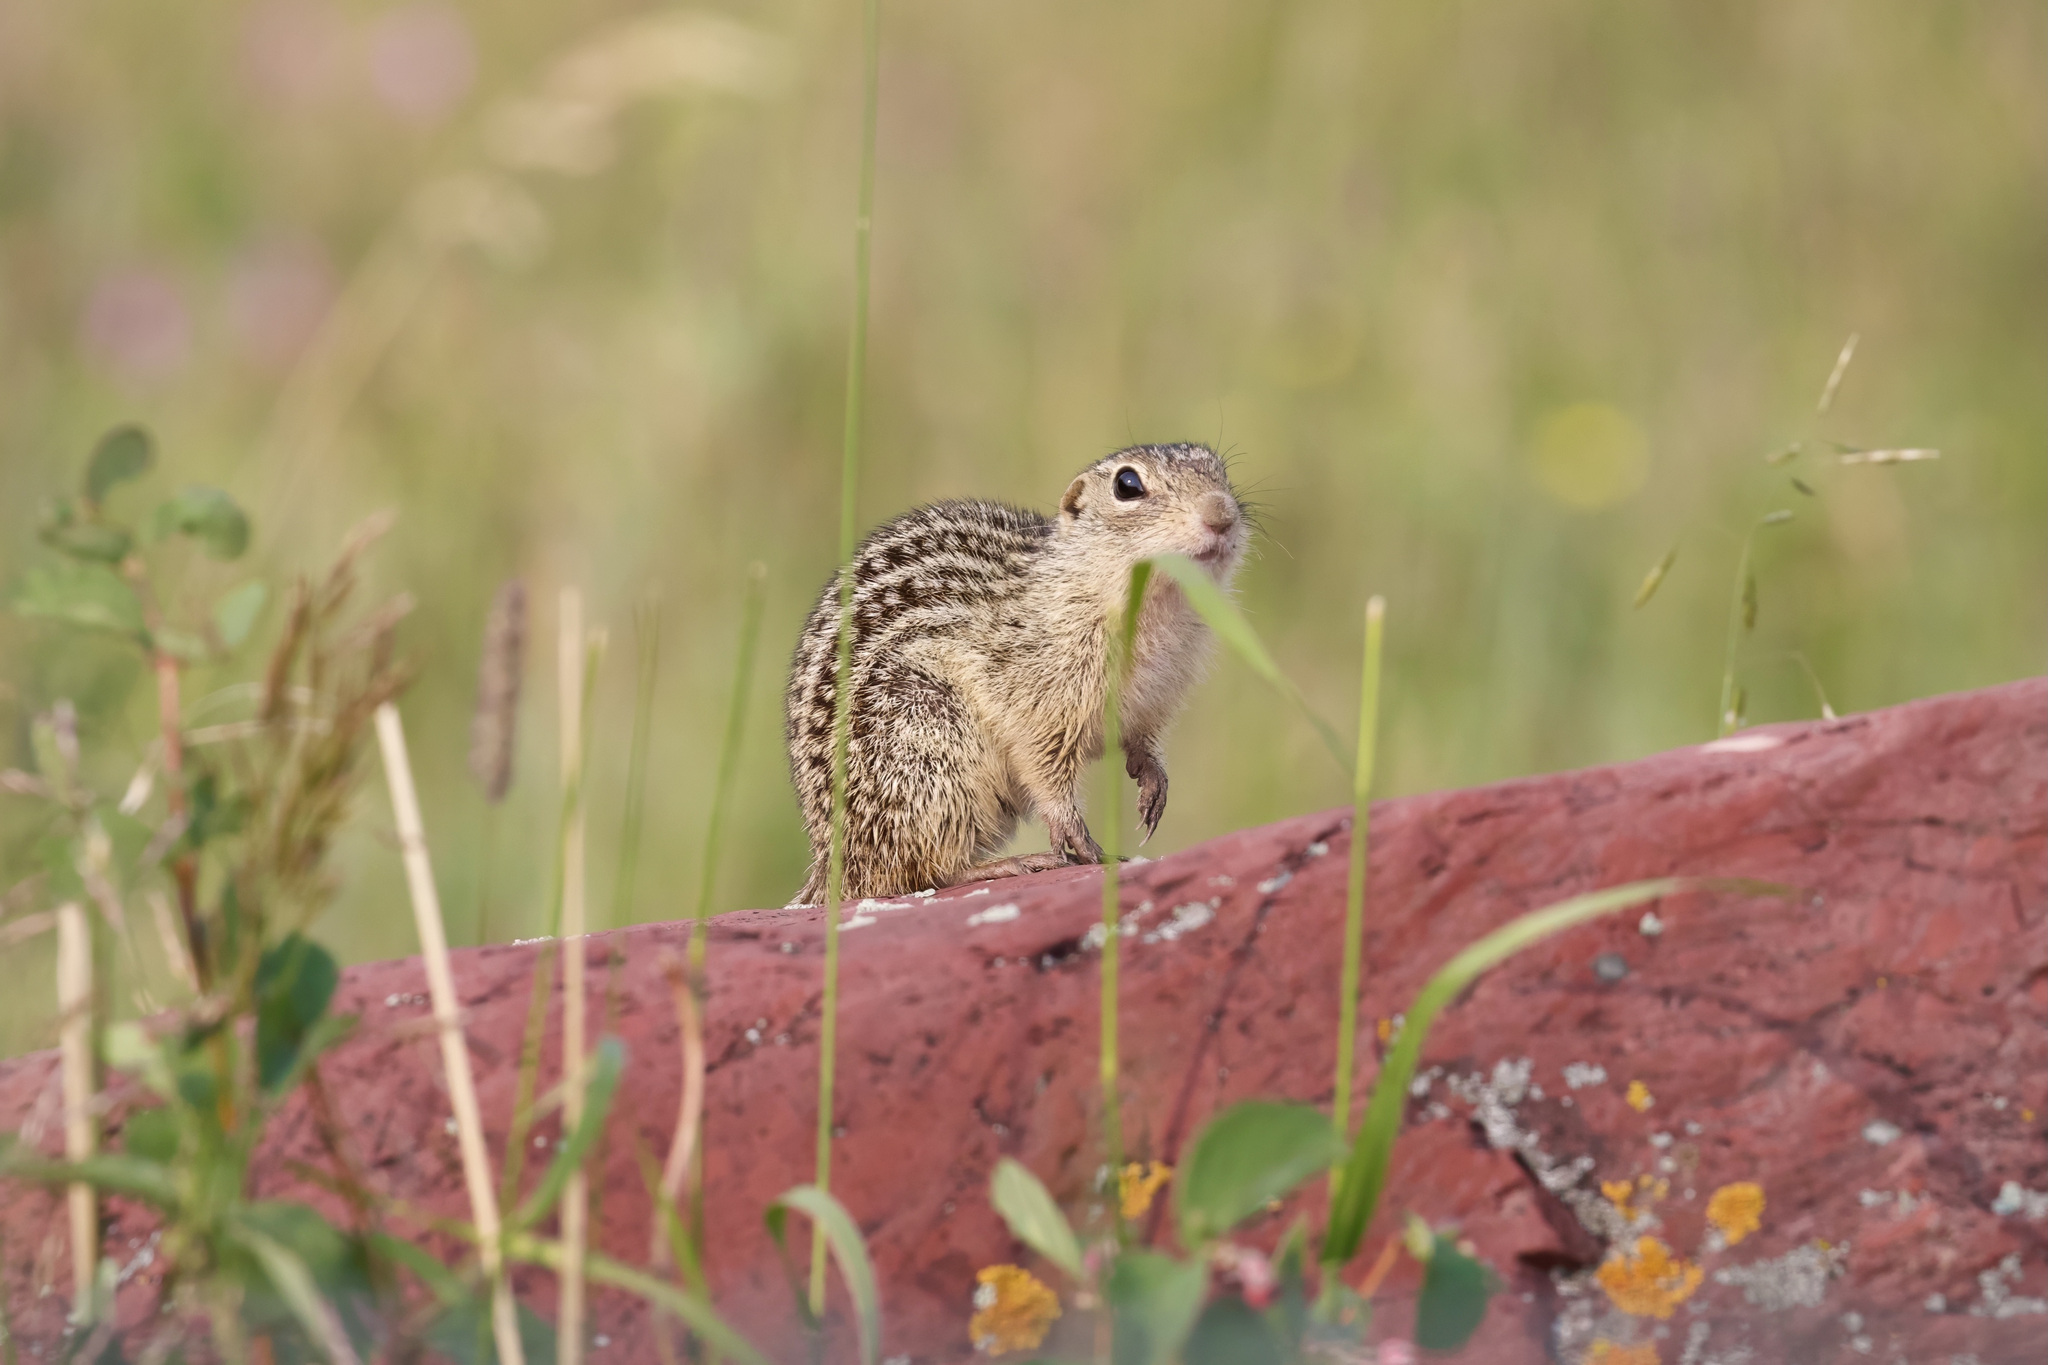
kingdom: Animalia
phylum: Chordata
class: Mammalia
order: Rodentia
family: Sciuridae
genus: Ictidomys
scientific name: Ictidomys tridecemlineatus
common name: Thirteen-lined ground squirrel
